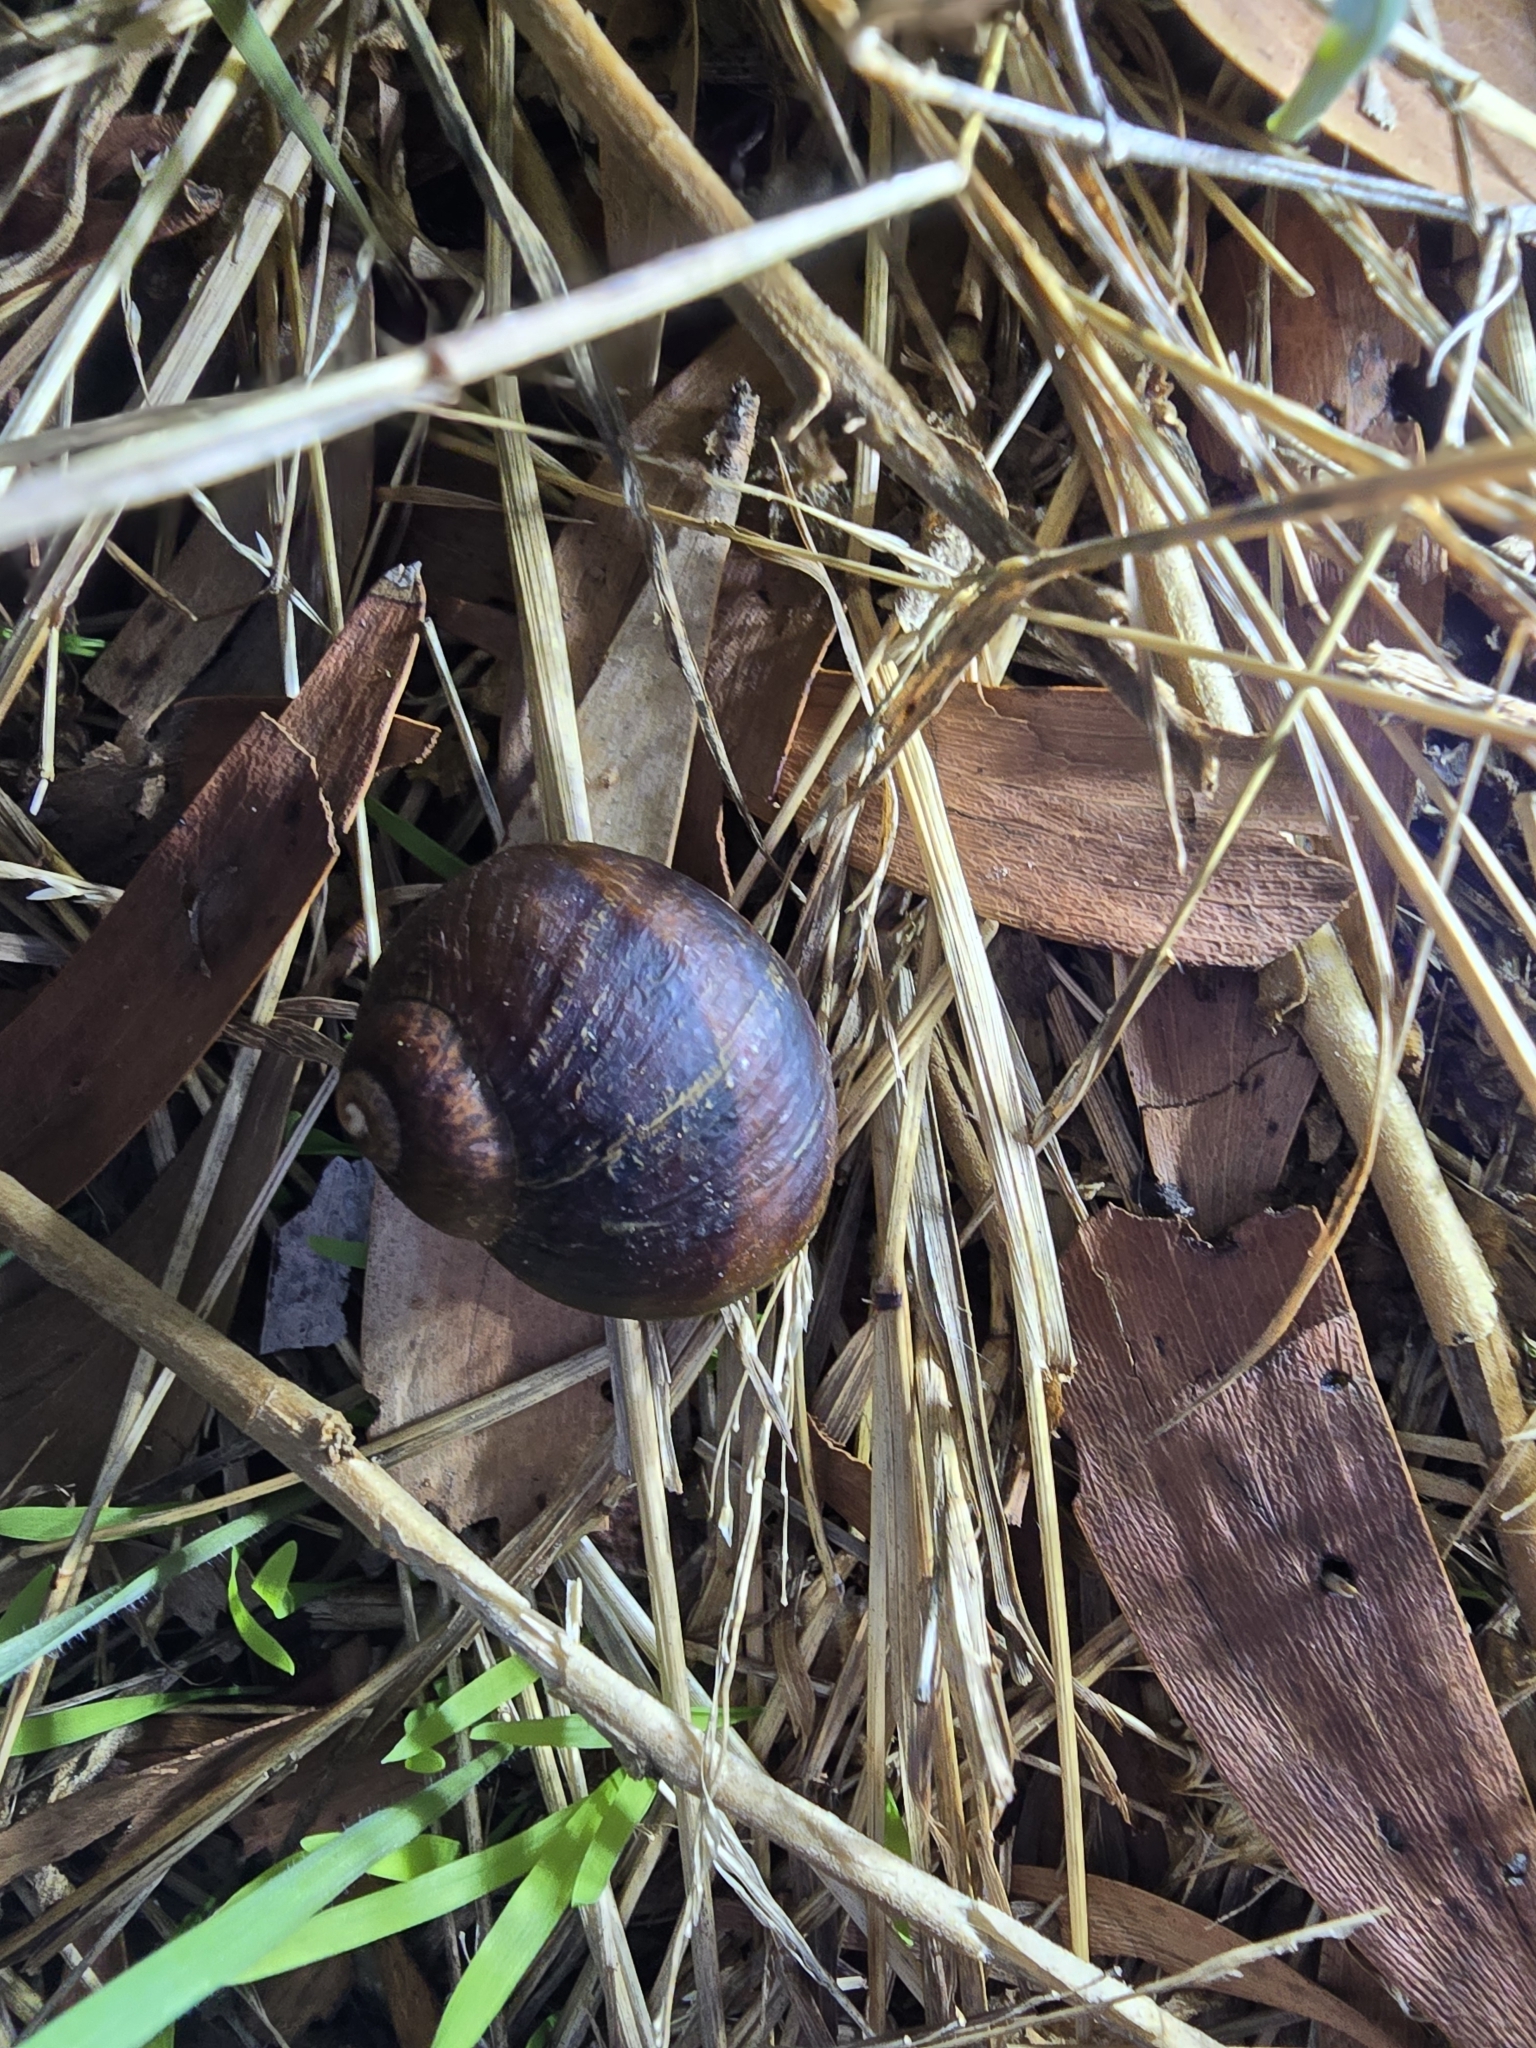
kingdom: Animalia
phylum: Mollusca
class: Gastropoda
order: Stylommatophora
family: Helicidae
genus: Cornu
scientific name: Cornu aspersum
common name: Brown garden snail
